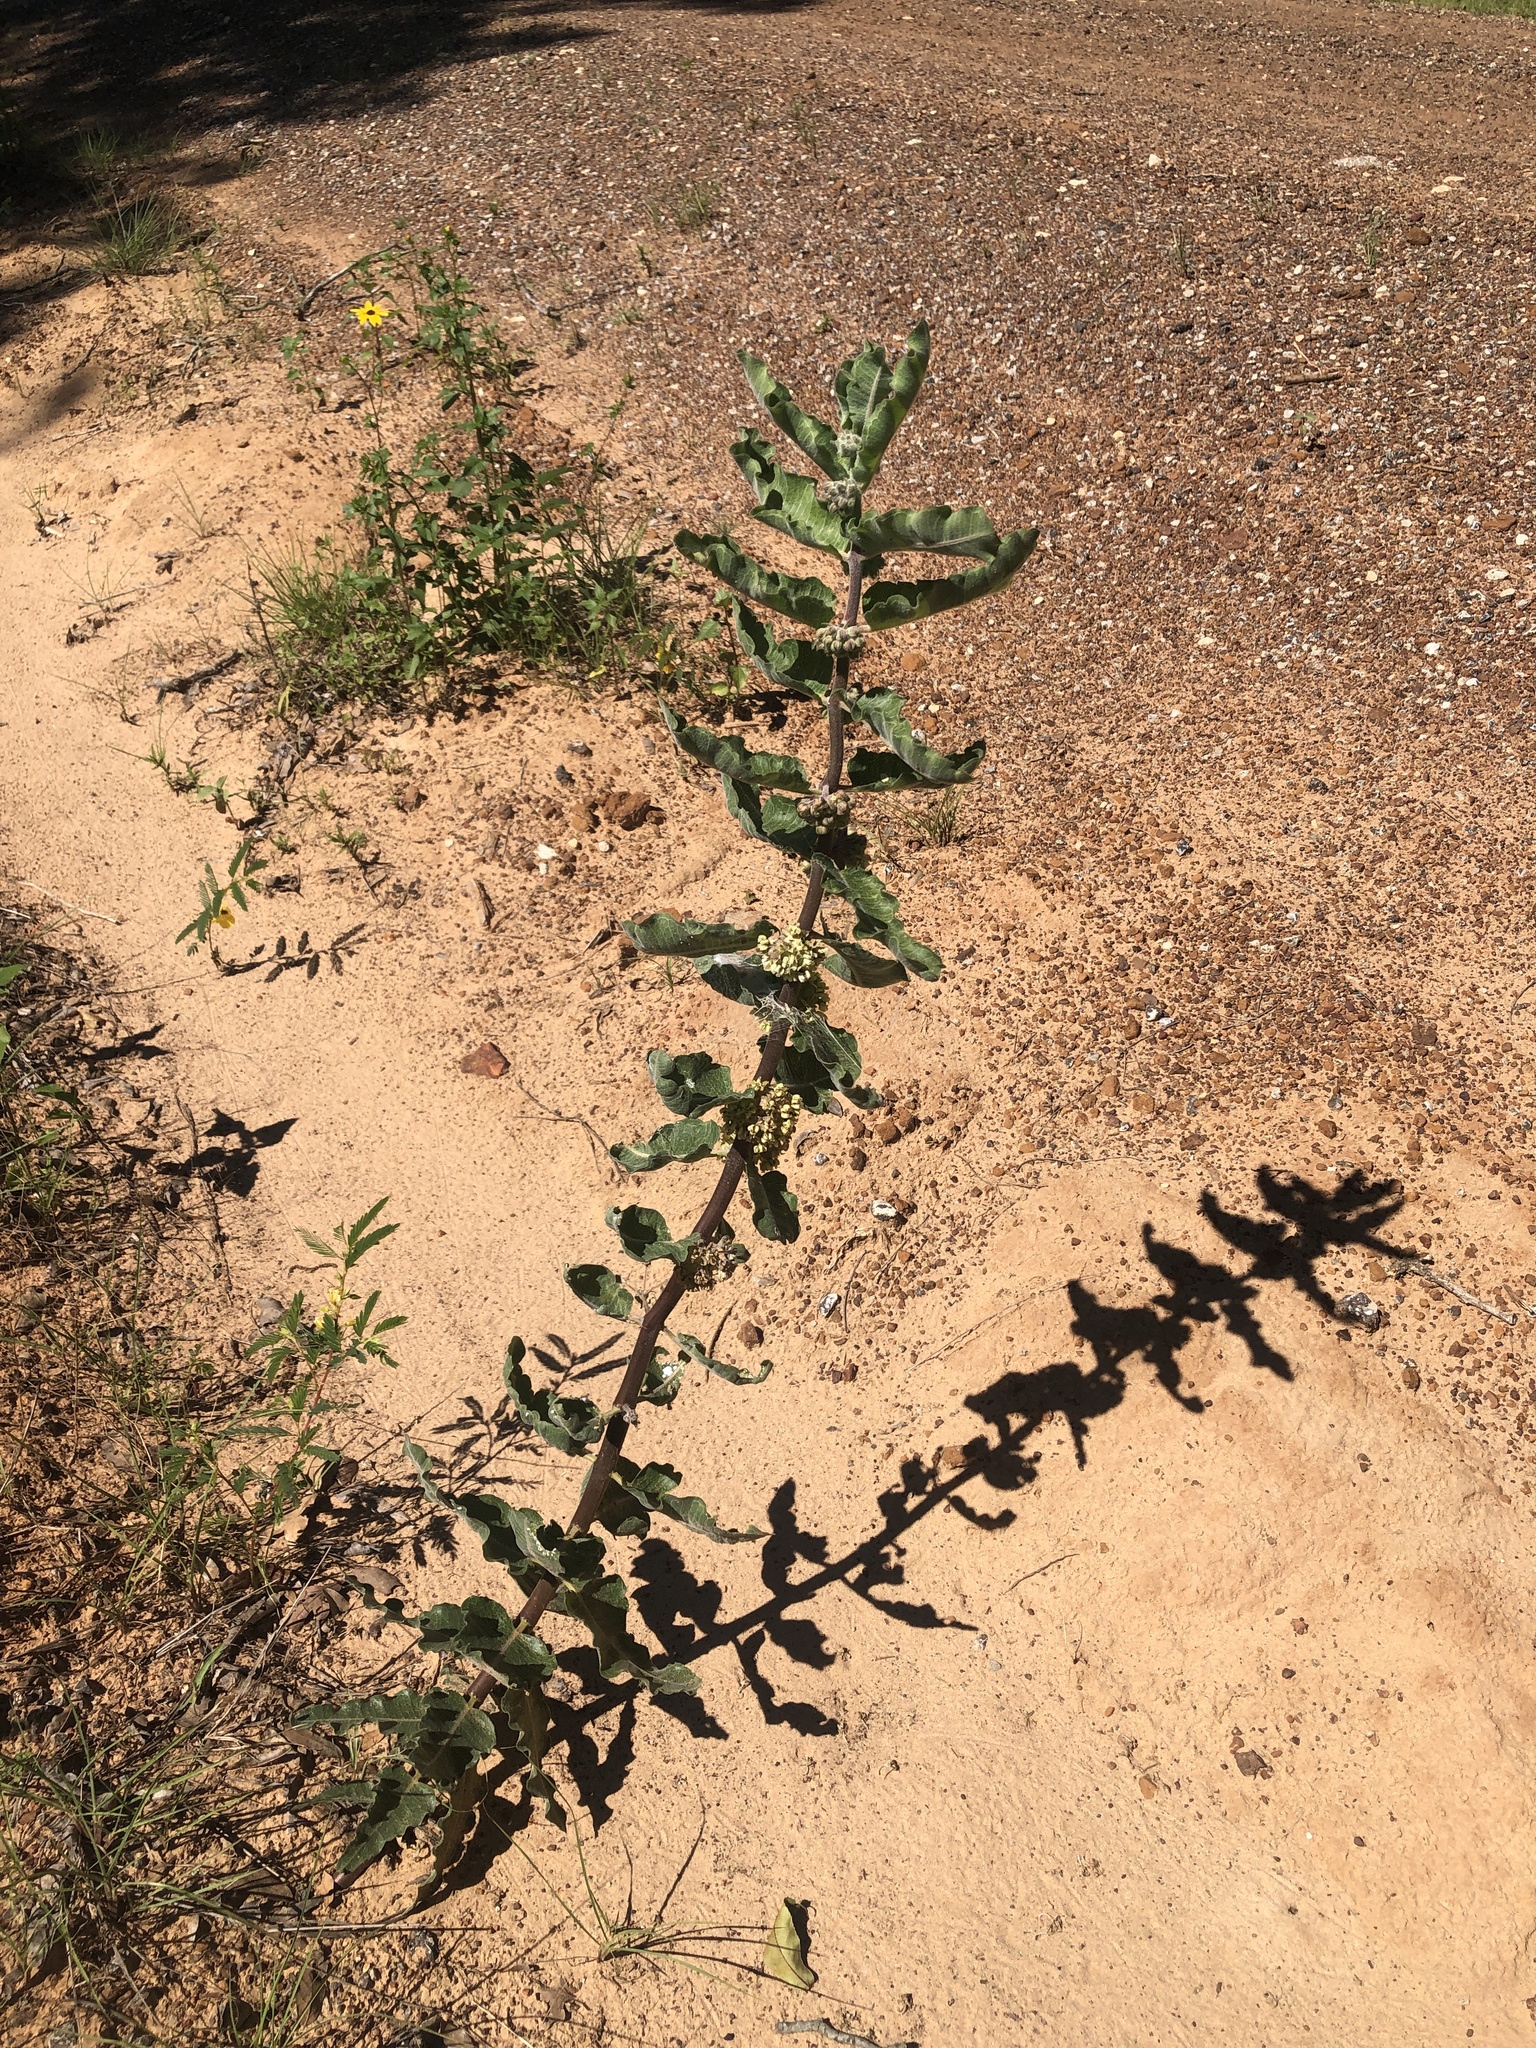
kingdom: Plantae
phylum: Tracheophyta
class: Magnoliopsida
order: Gentianales
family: Apocynaceae
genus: Asclepias
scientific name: Asclepias arenaria
